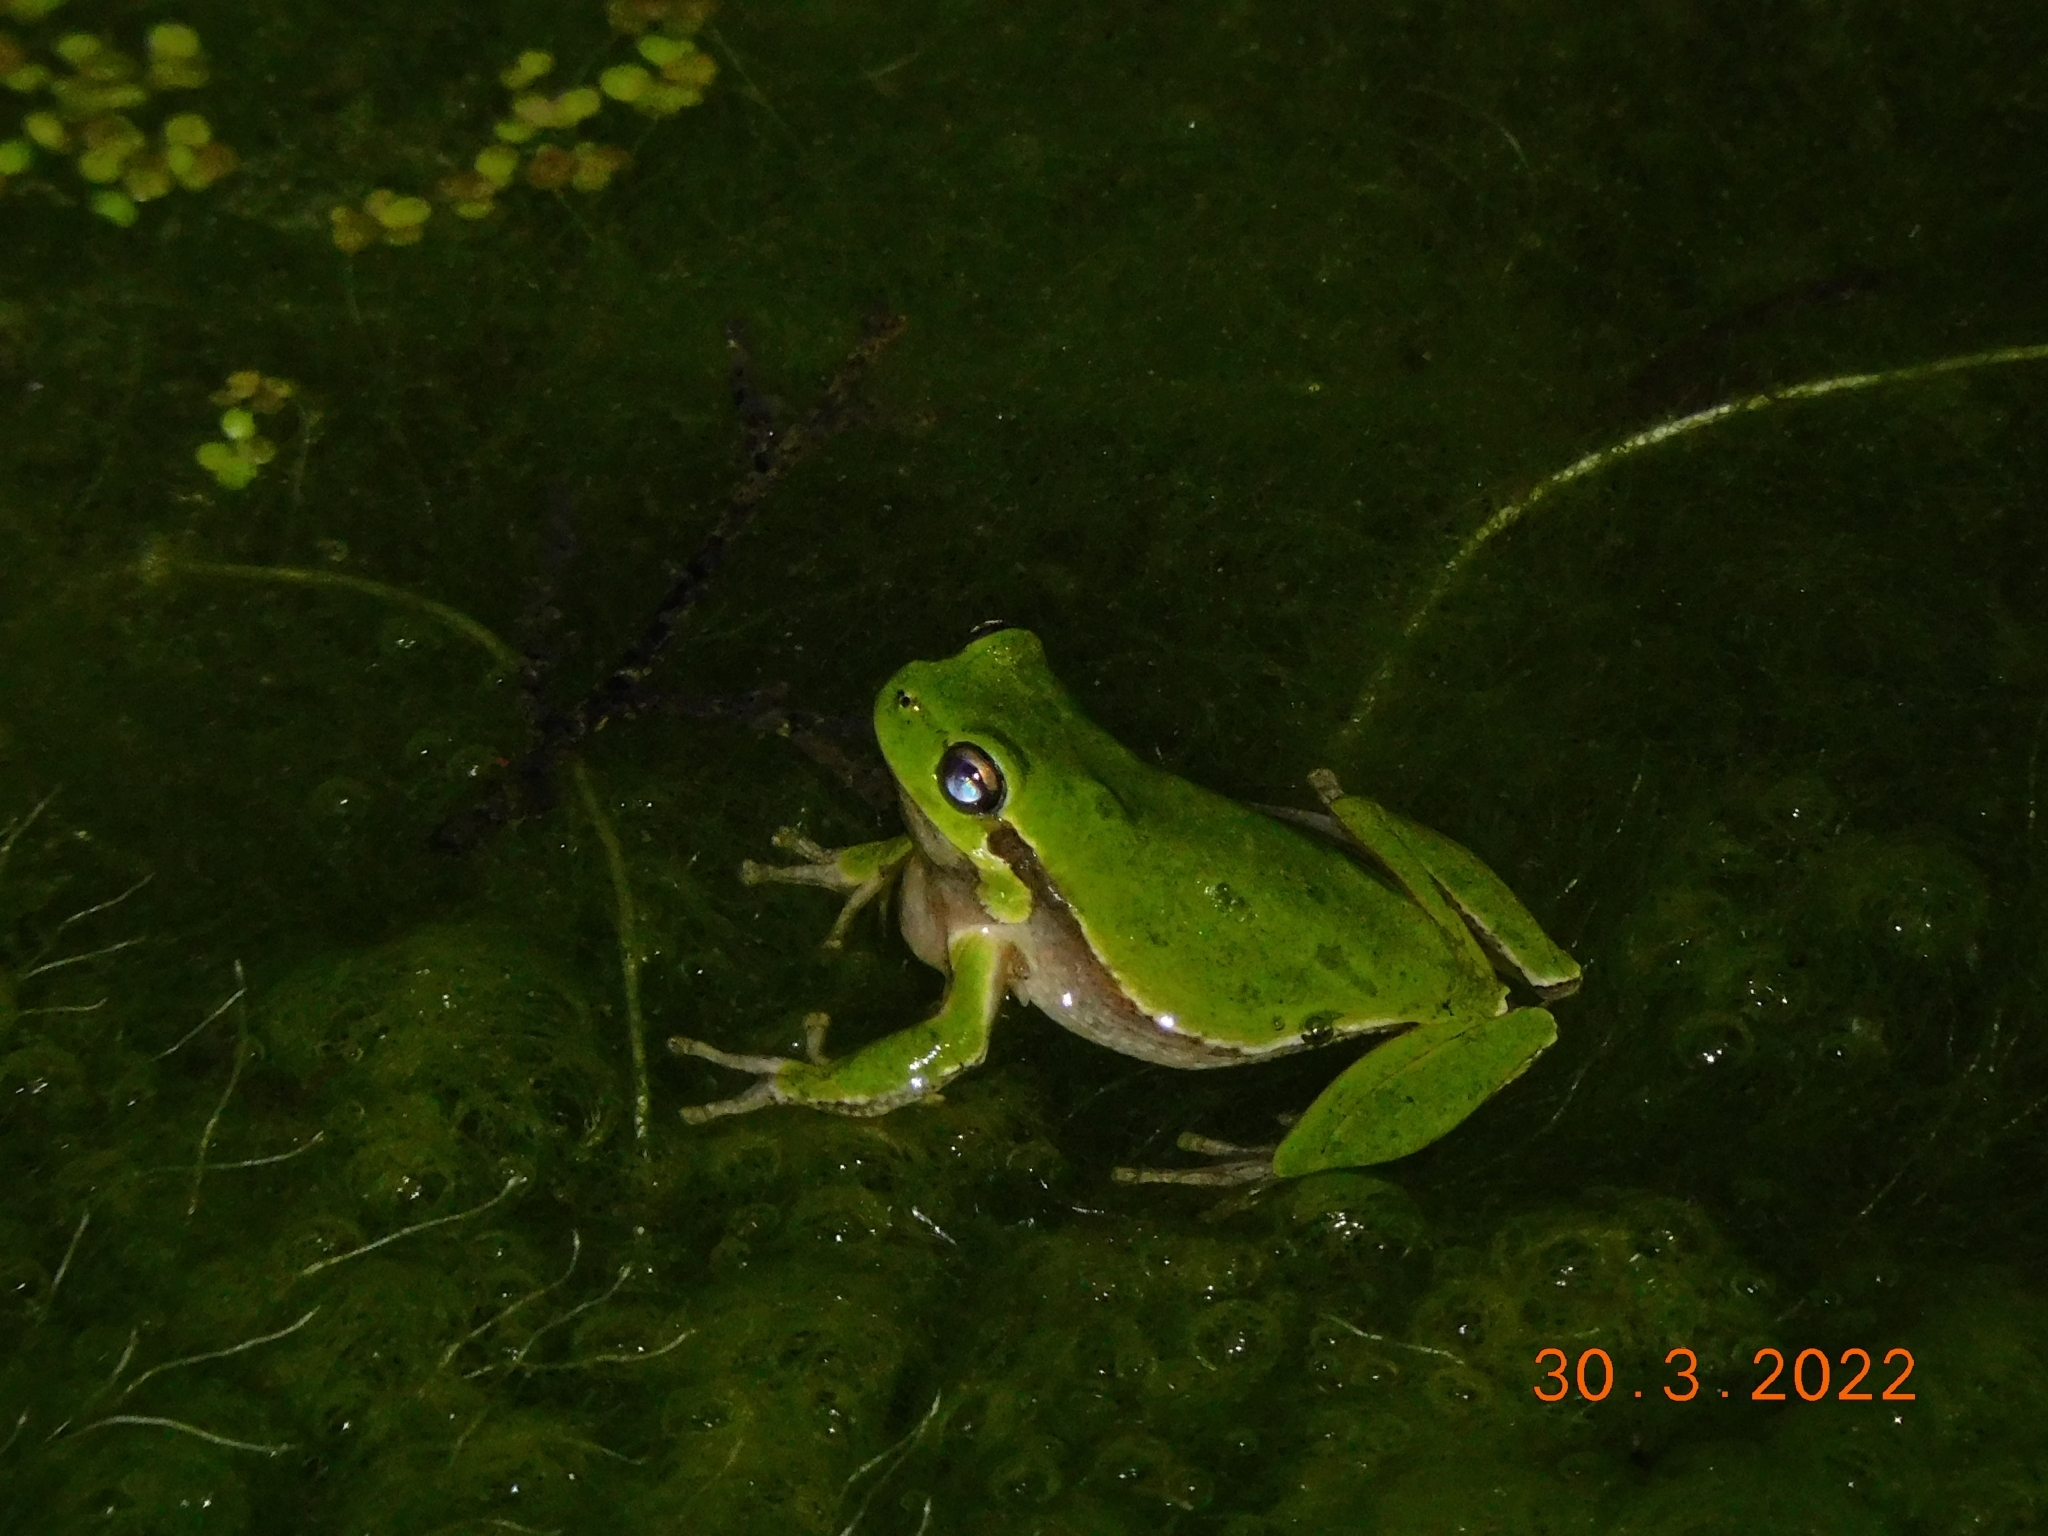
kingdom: Animalia
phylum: Chordata
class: Amphibia
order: Anura
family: Hylidae
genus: Hyla
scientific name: Hyla sarda
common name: Sardinian tree frog
